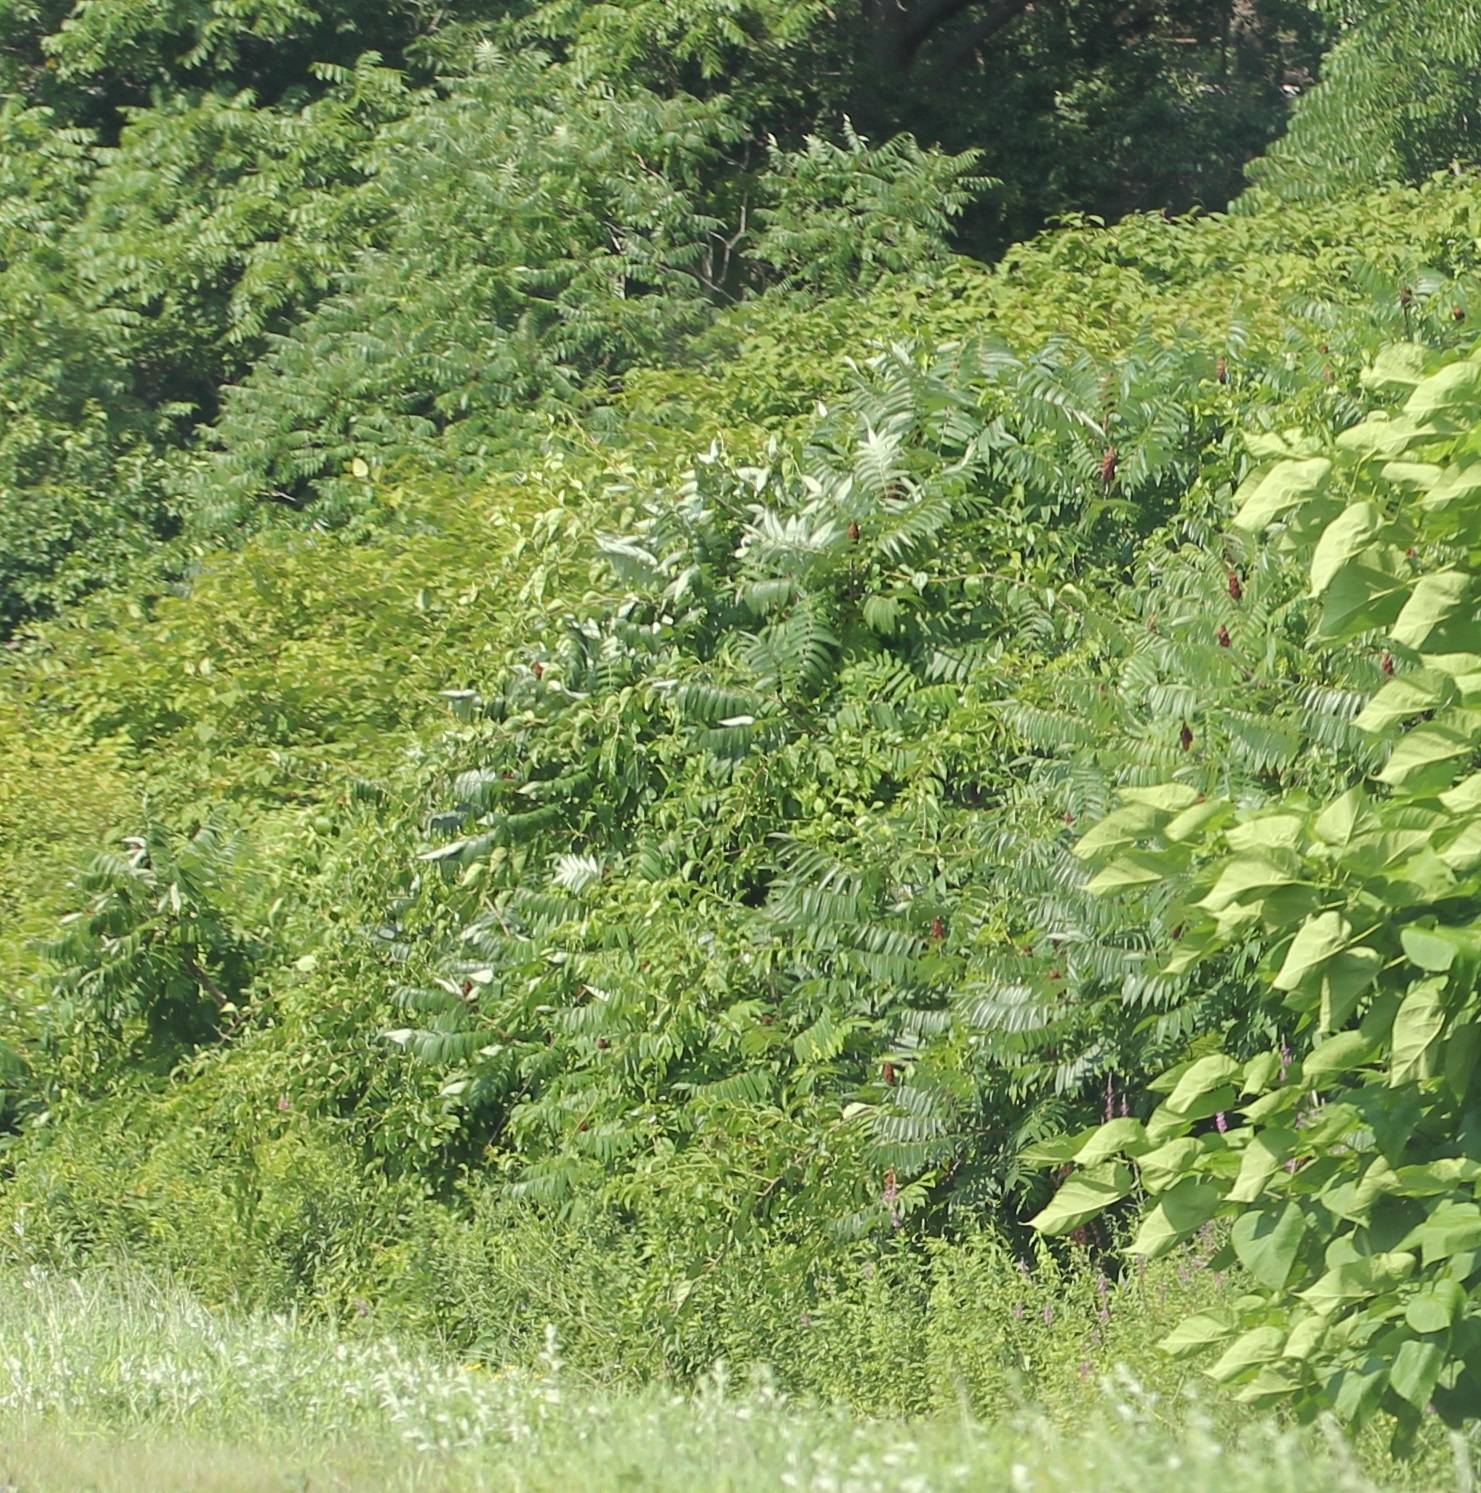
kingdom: Plantae
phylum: Tracheophyta
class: Magnoliopsida
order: Sapindales
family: Anacardiaceae
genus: Rhus
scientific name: Rhus
